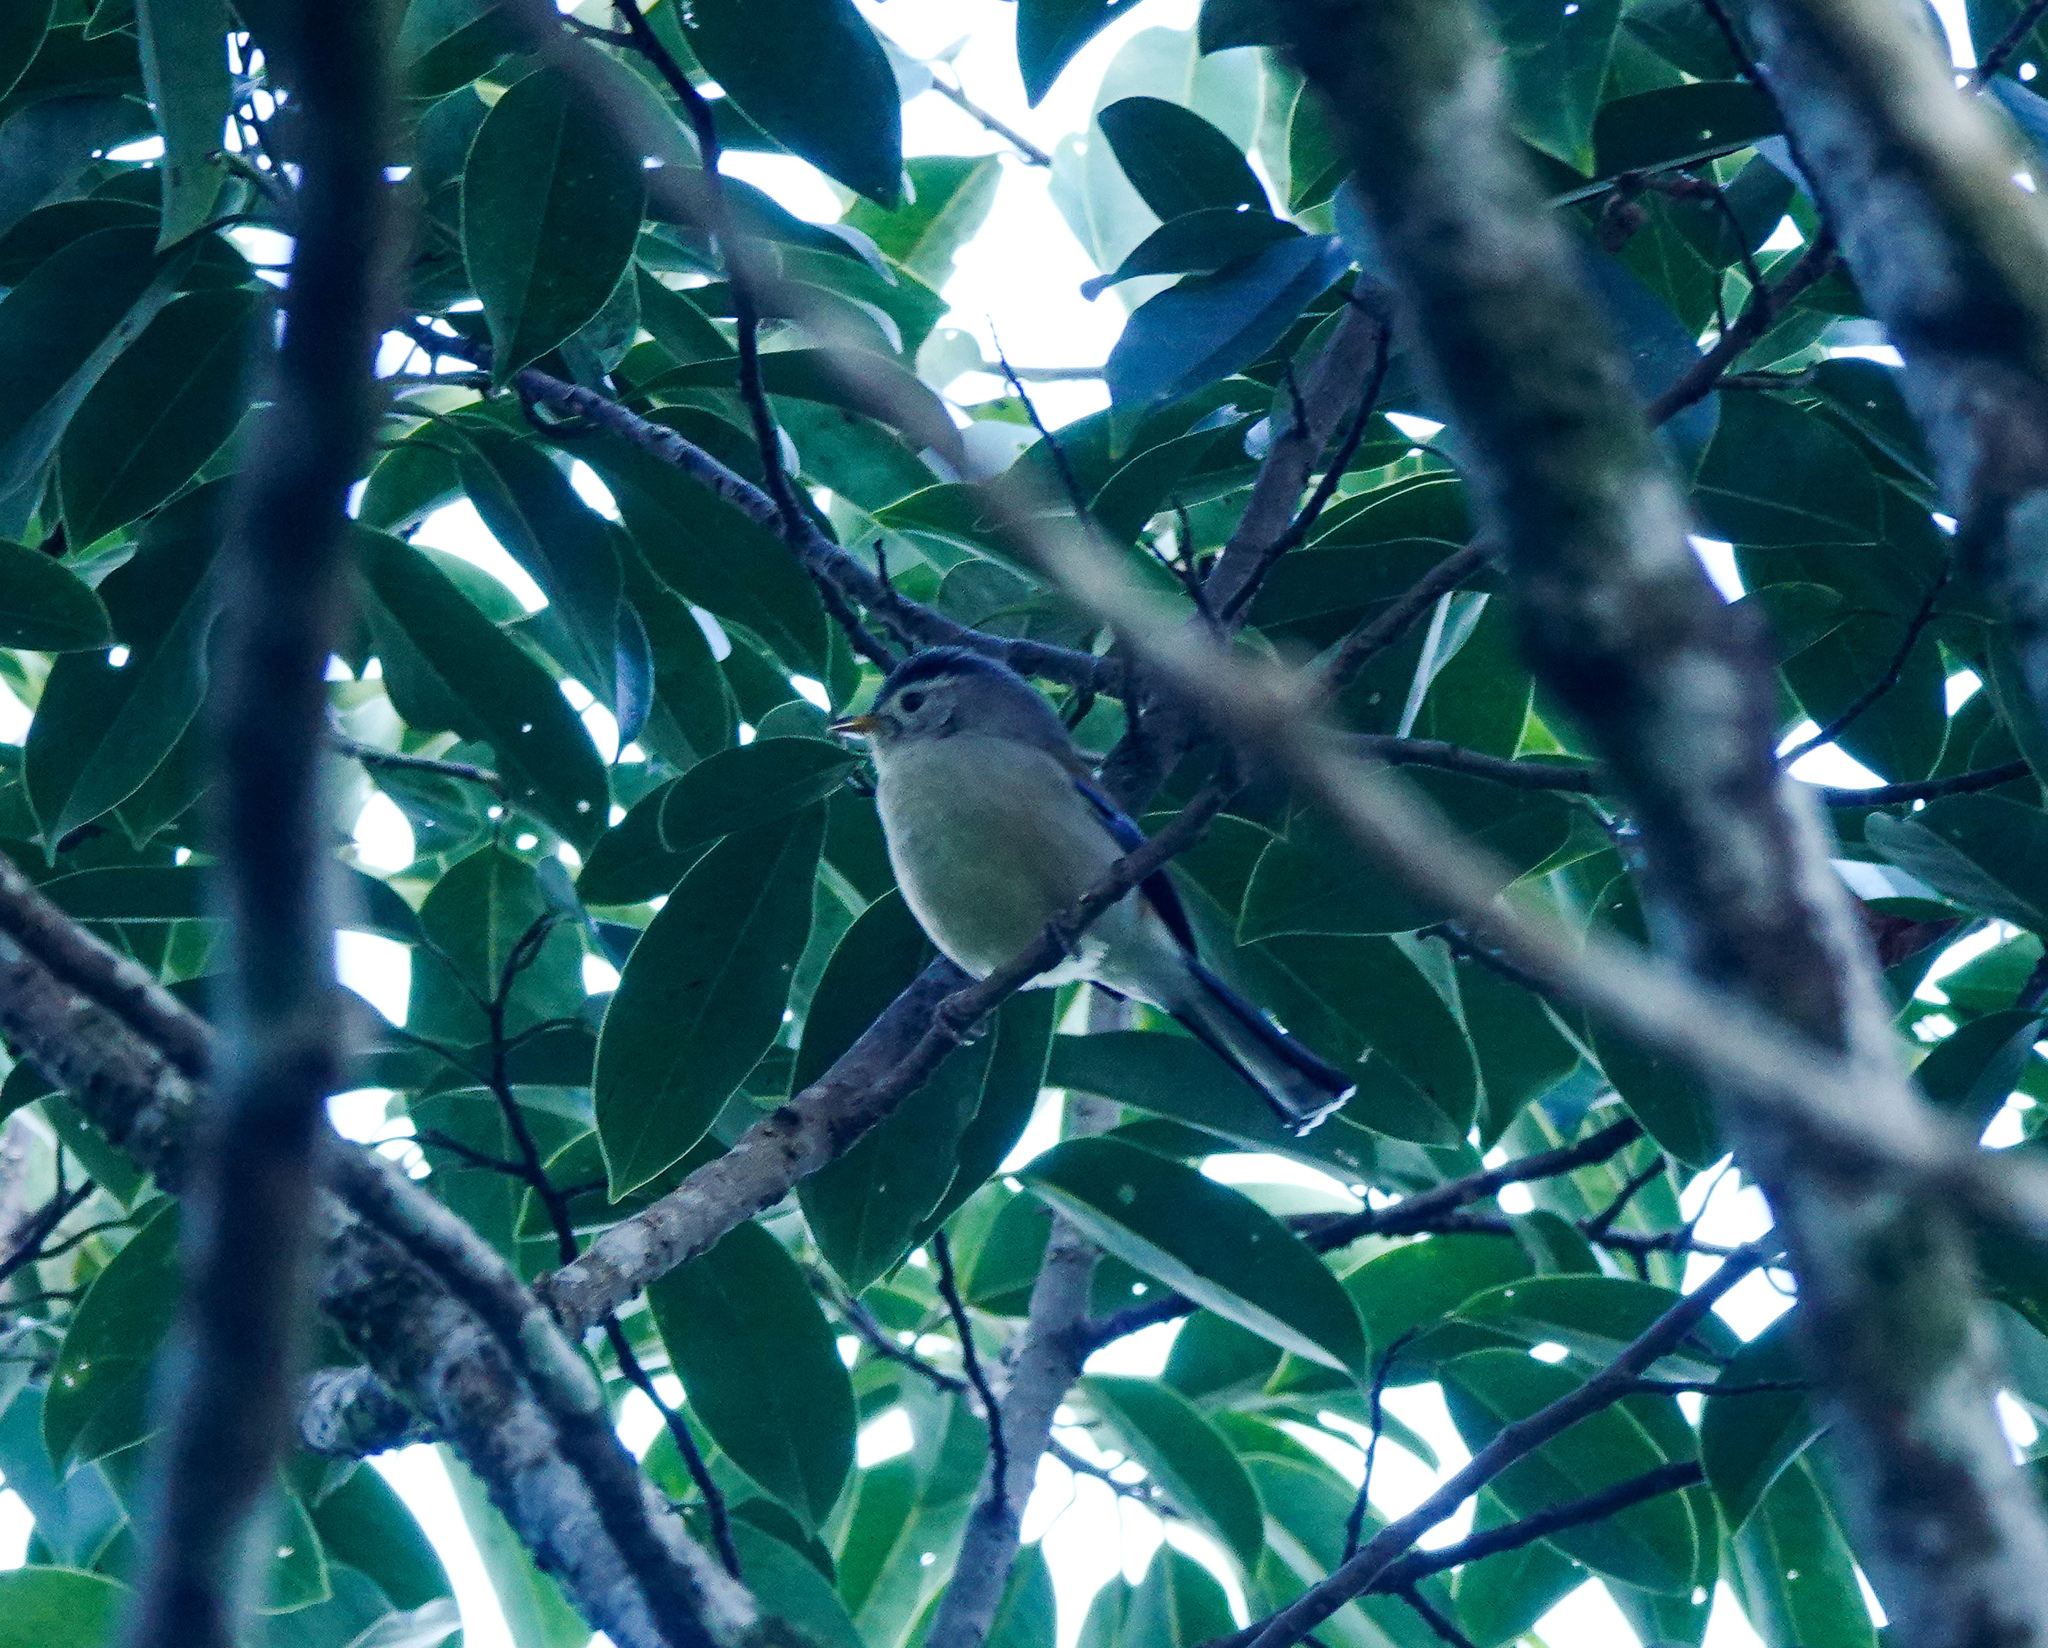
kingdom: Animalia
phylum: Chordata
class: Aves
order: Passeriformes
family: Leiothrichidae
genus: Minla
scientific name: Minla cyanouroptera
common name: Blue-winged minla
